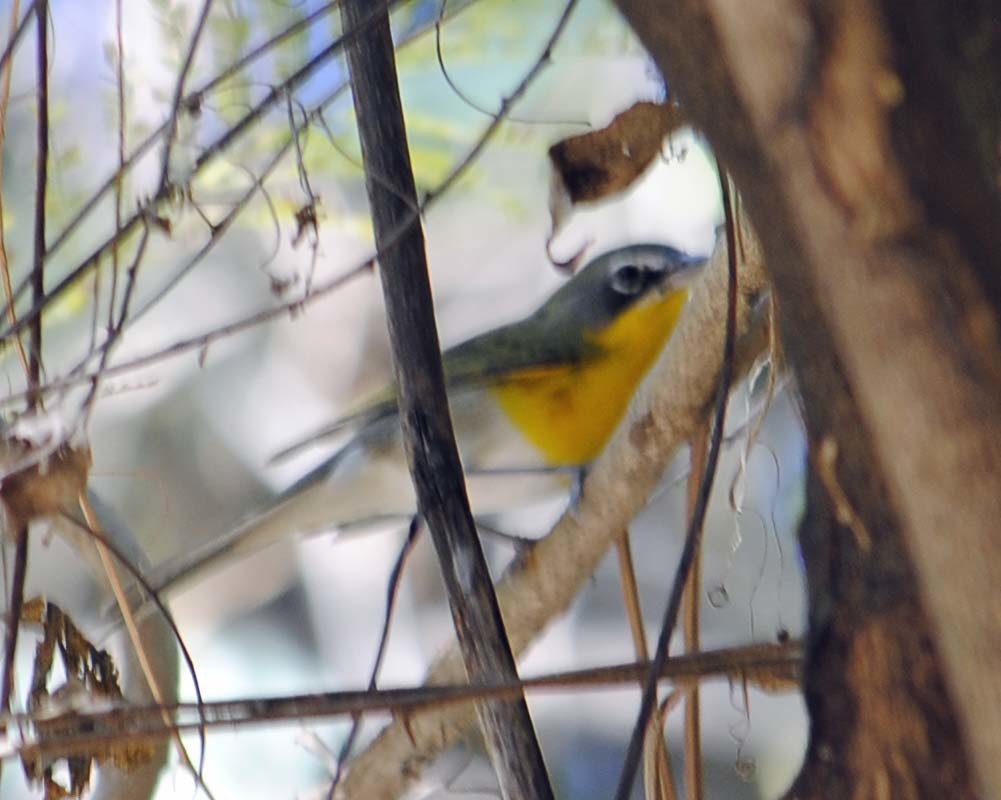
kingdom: Animalia
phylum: Chordata
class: Aves
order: Passeriformes
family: Parulidae
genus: Icteria
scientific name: Icteria virens
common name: Yellow-breasted chat
